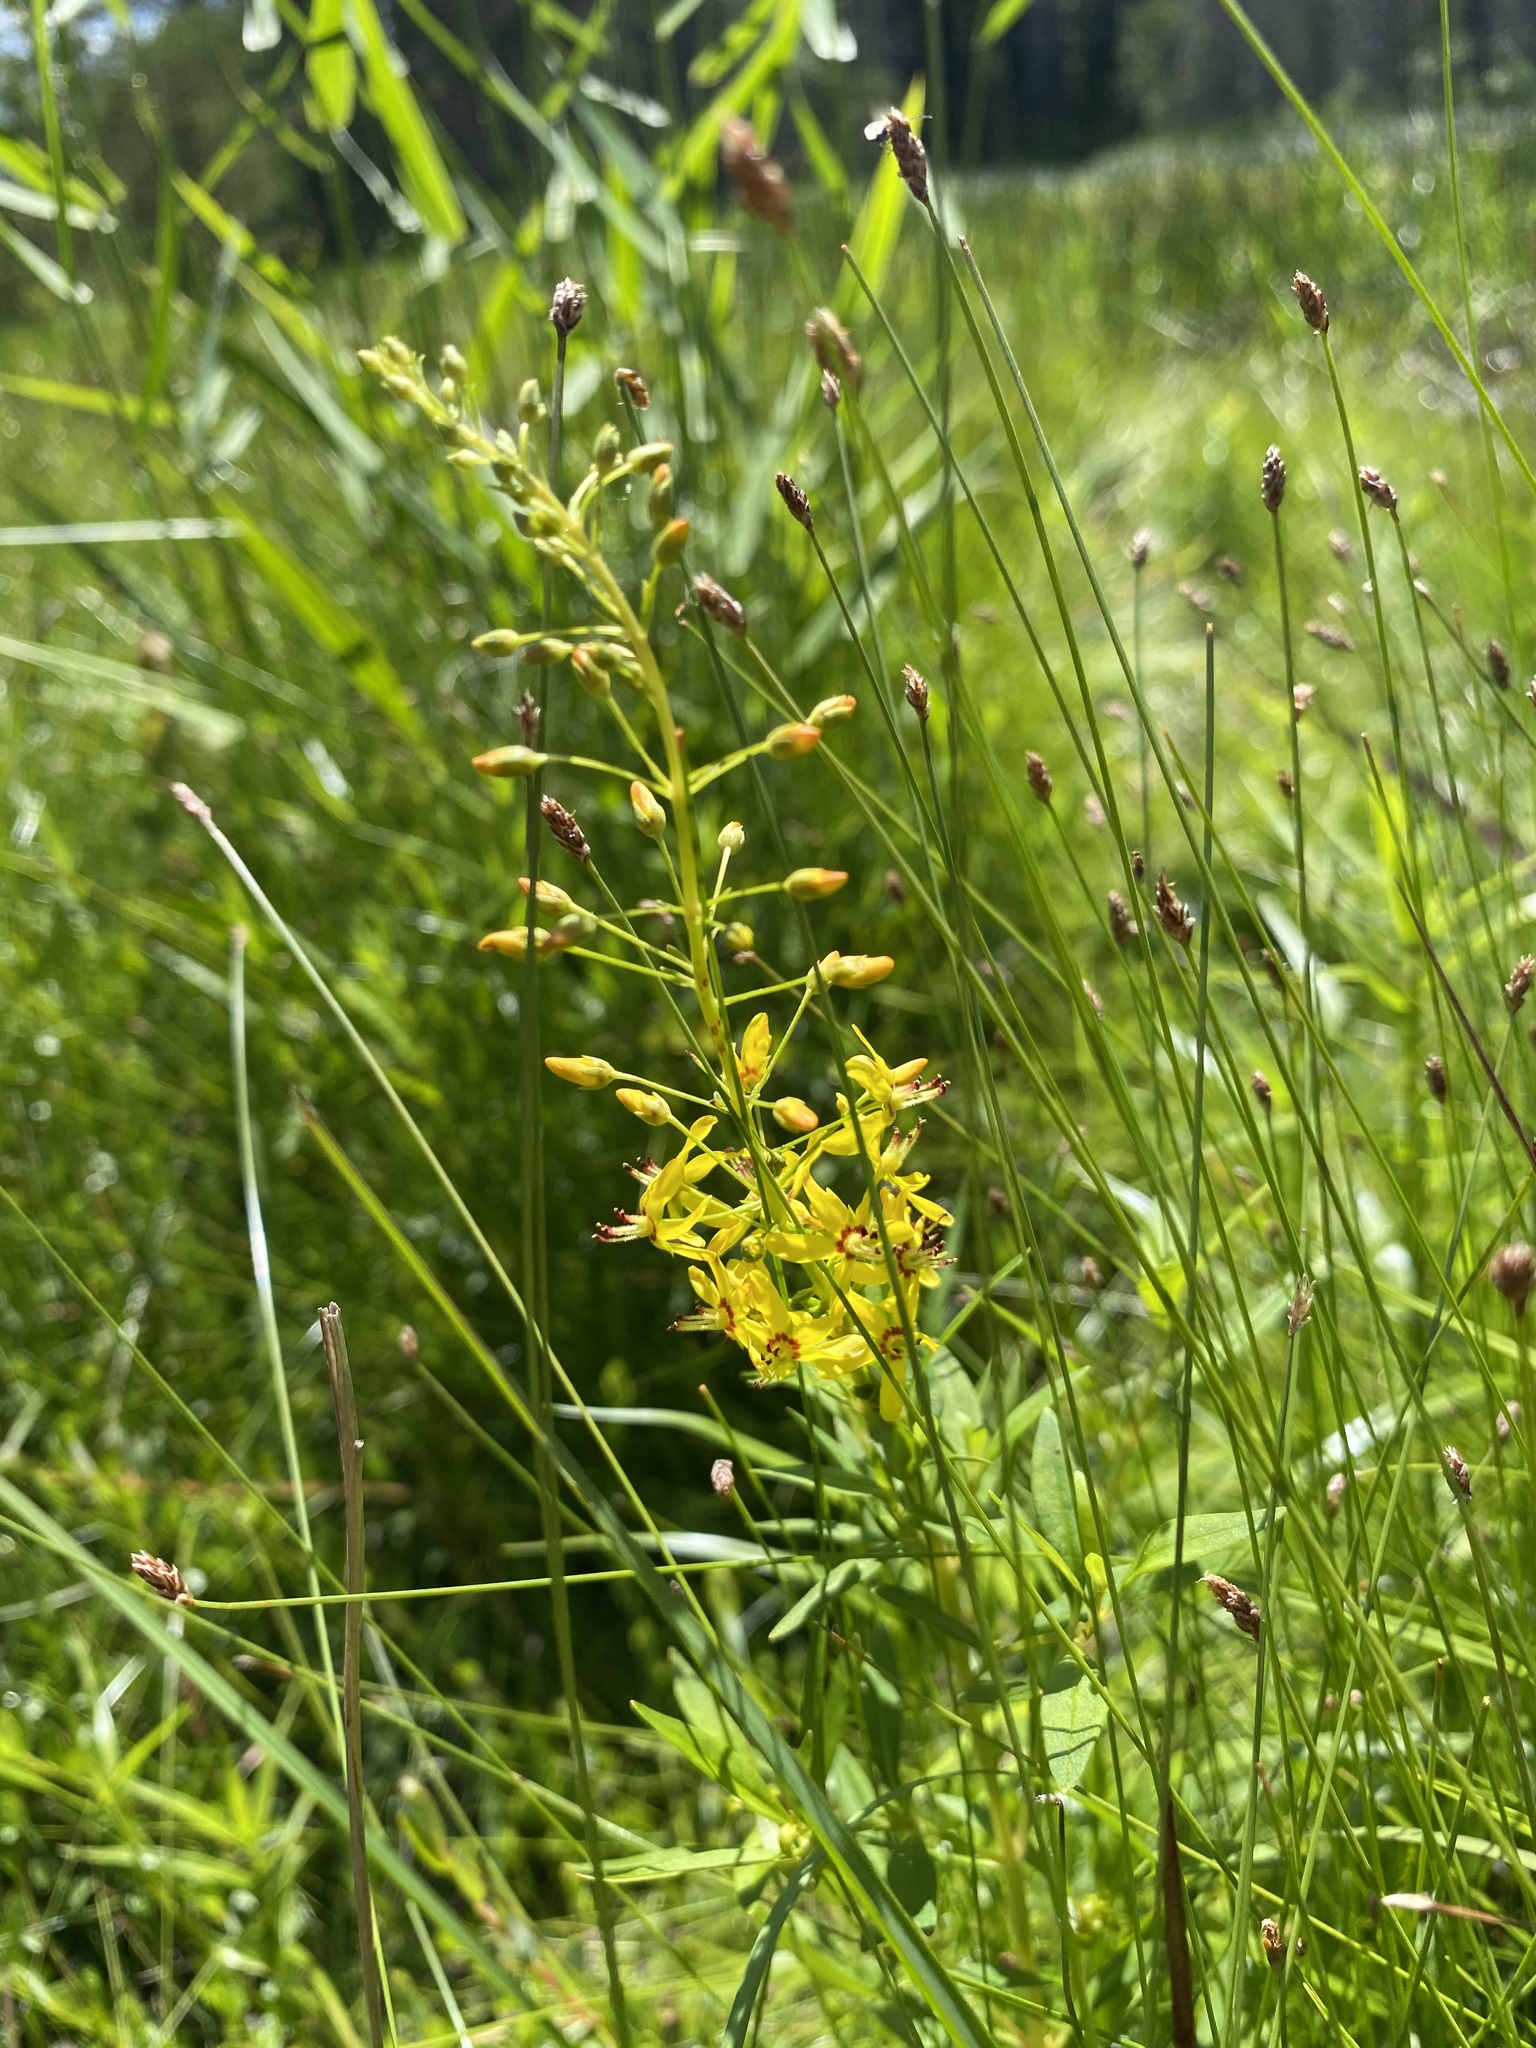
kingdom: Plantae
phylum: Tracheophyta
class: Magnoliopsida
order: Ericales
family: Primulaceae
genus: Lysimachia
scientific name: Lysimachia terrestris
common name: Lake loosestrife
